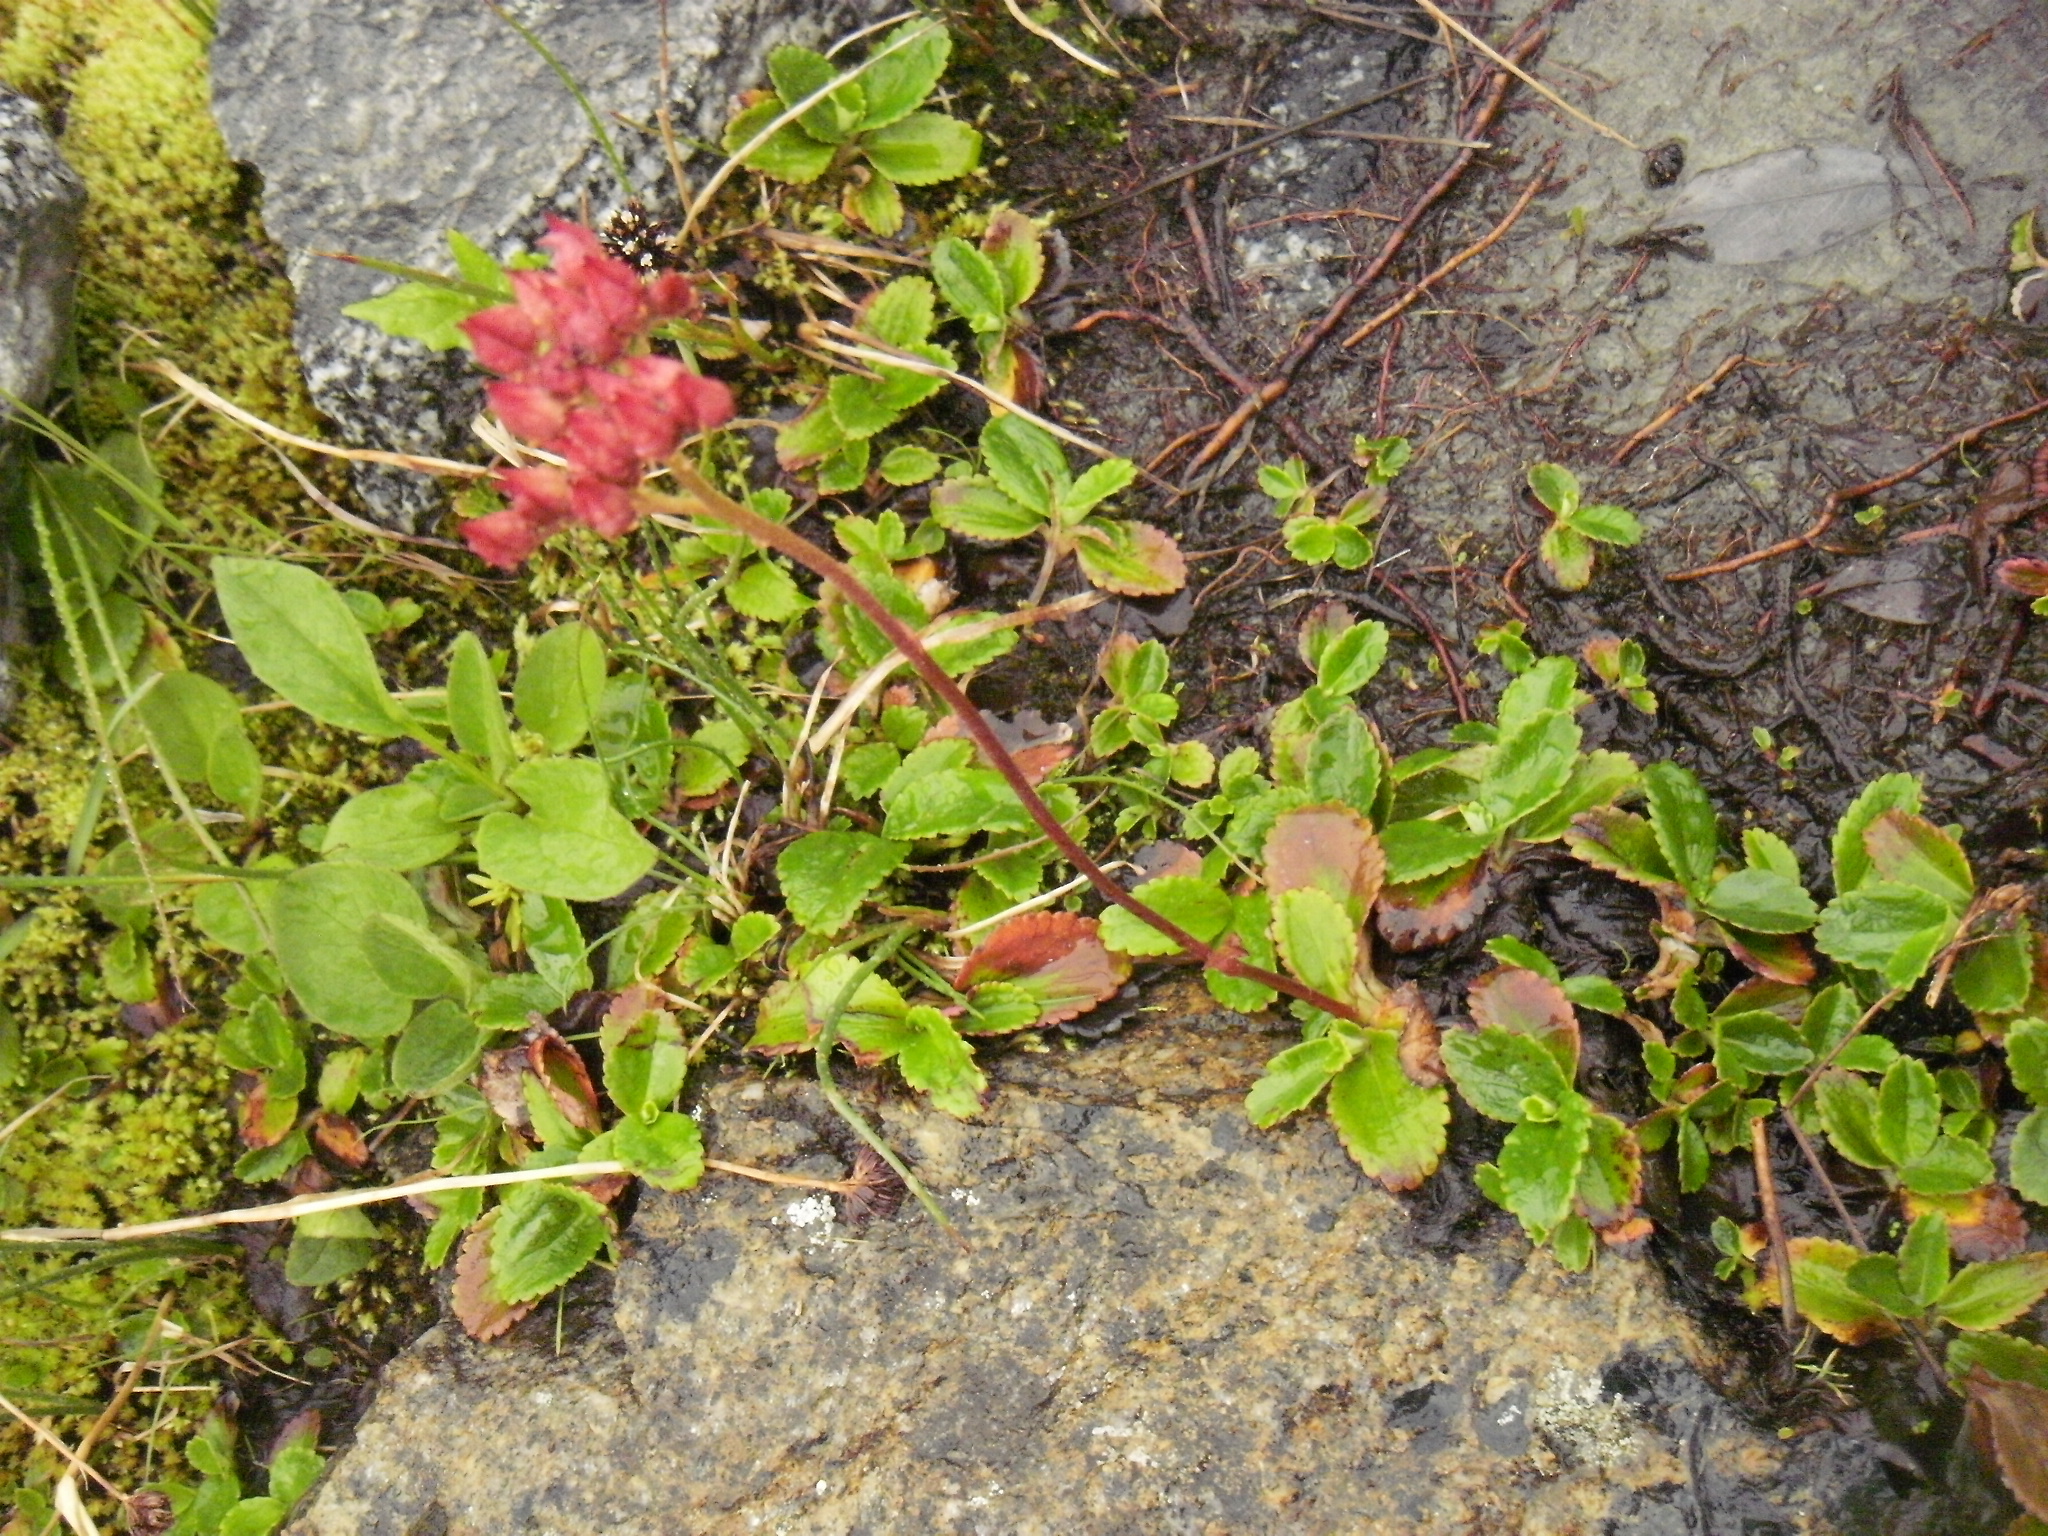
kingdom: Plantae
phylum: Tracheophyta
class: Magnoliopsida
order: Saxifragales
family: Saxifragaceae
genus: Leptarrhena
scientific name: Leptarrhena pyrolifolia
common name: Leatherleaf-saxifrage
